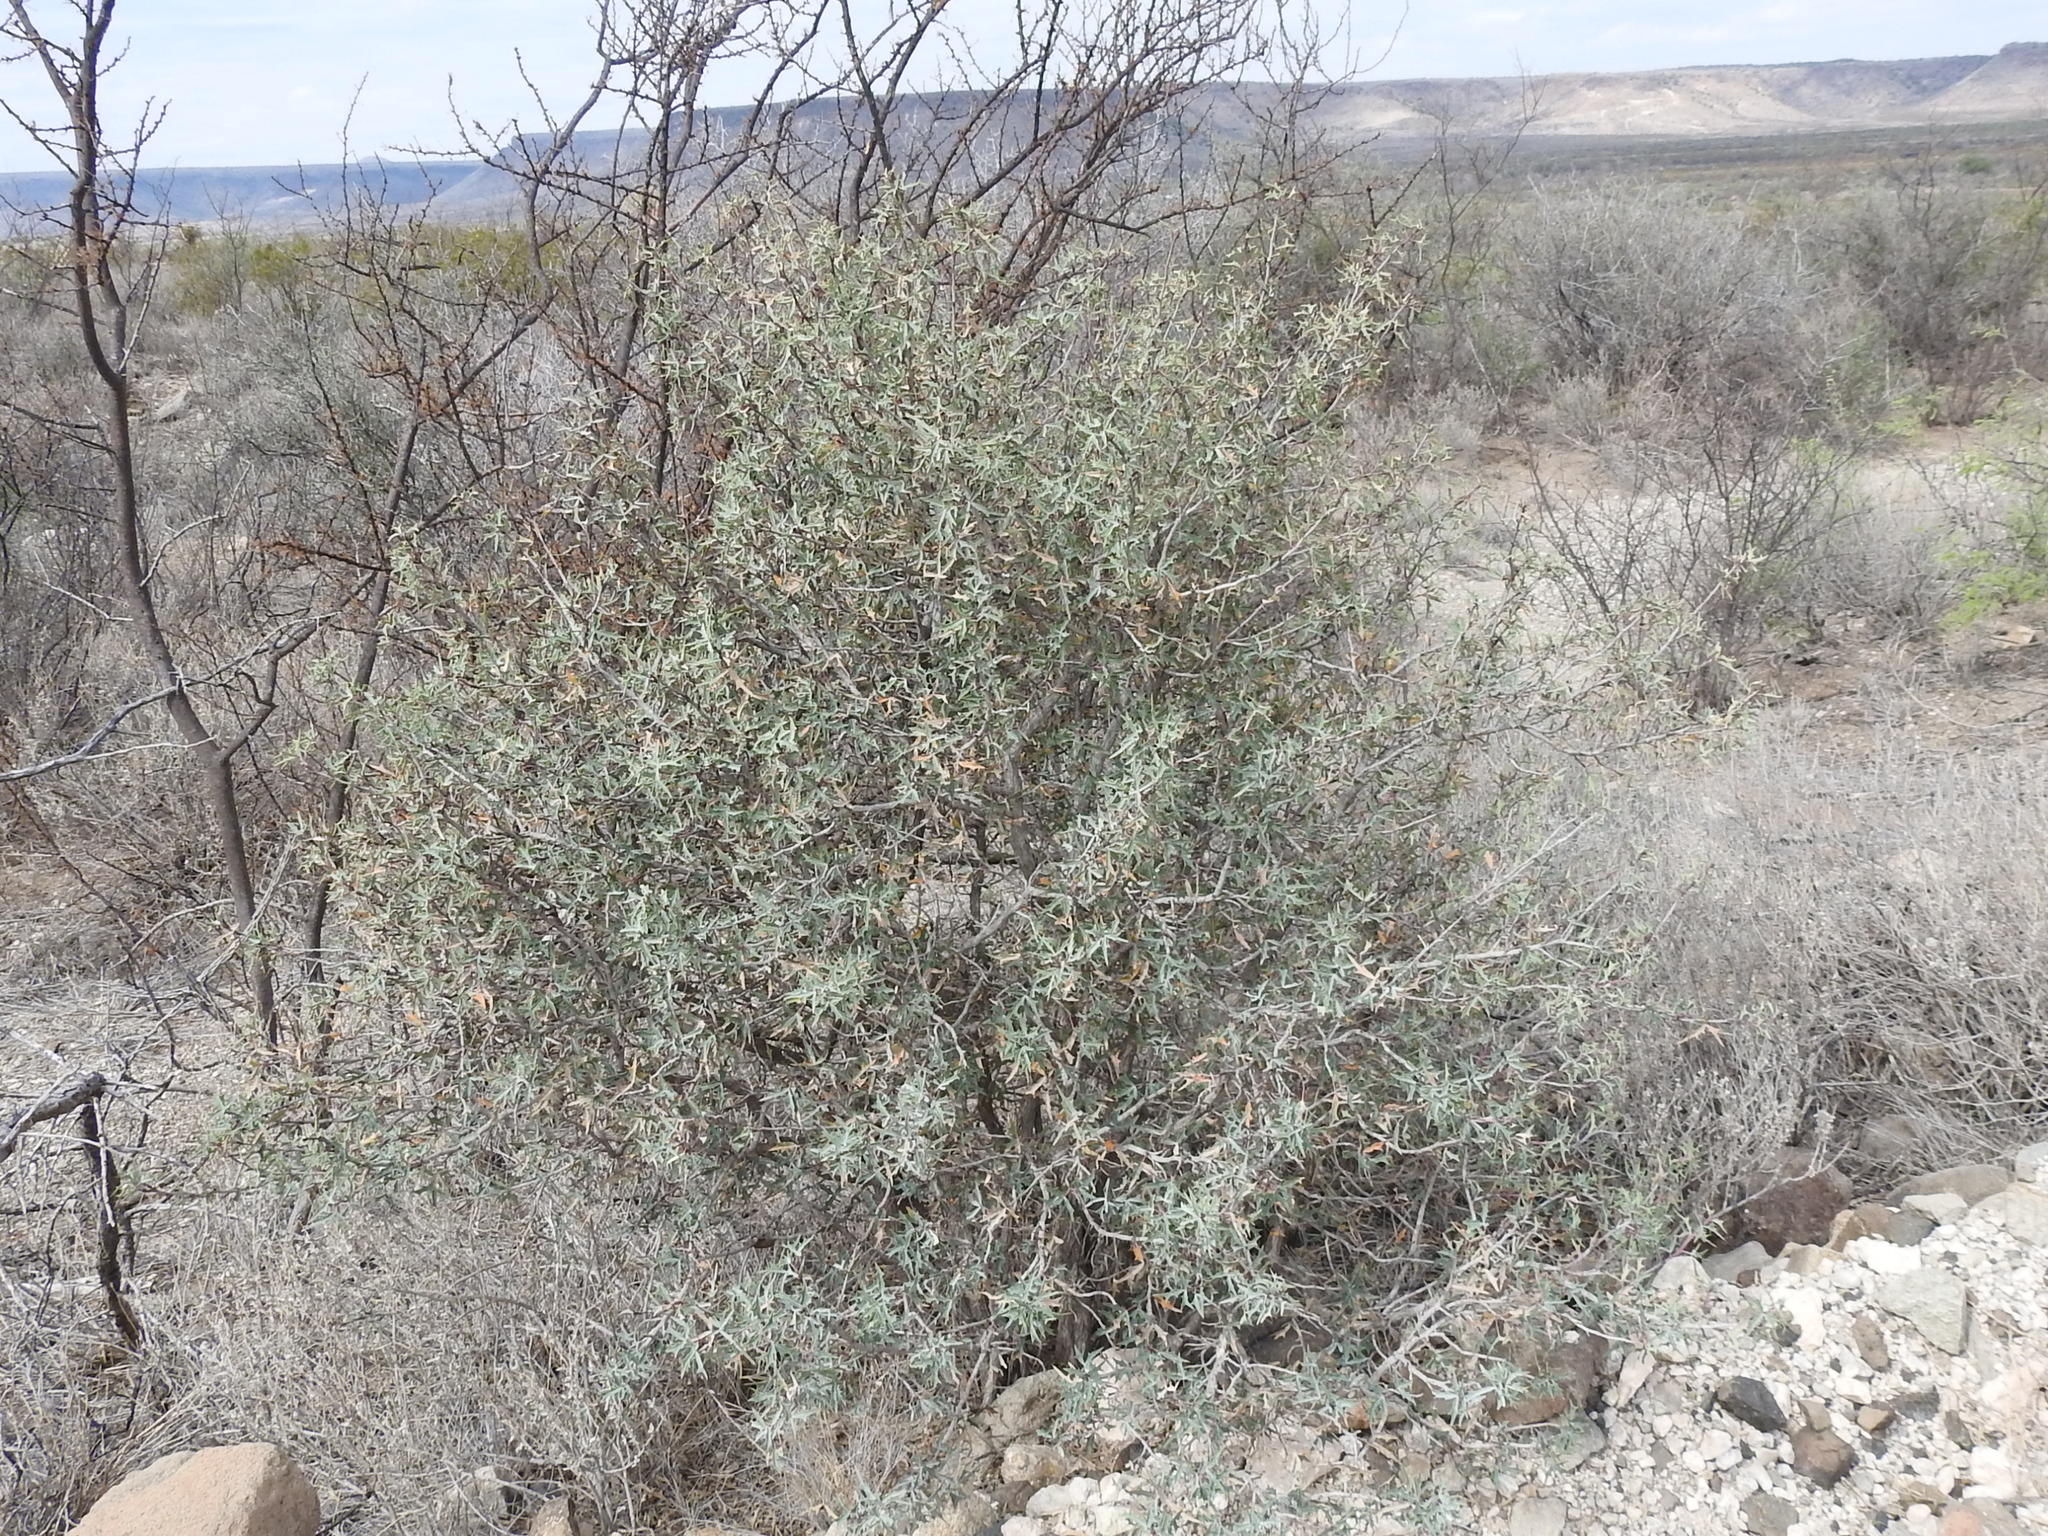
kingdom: Plantae
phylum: Tracheophyta
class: Magnoliopsida
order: Ranunculales
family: Berberidaceae
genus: Alloberberis
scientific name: Alloberberis trifoliolata
